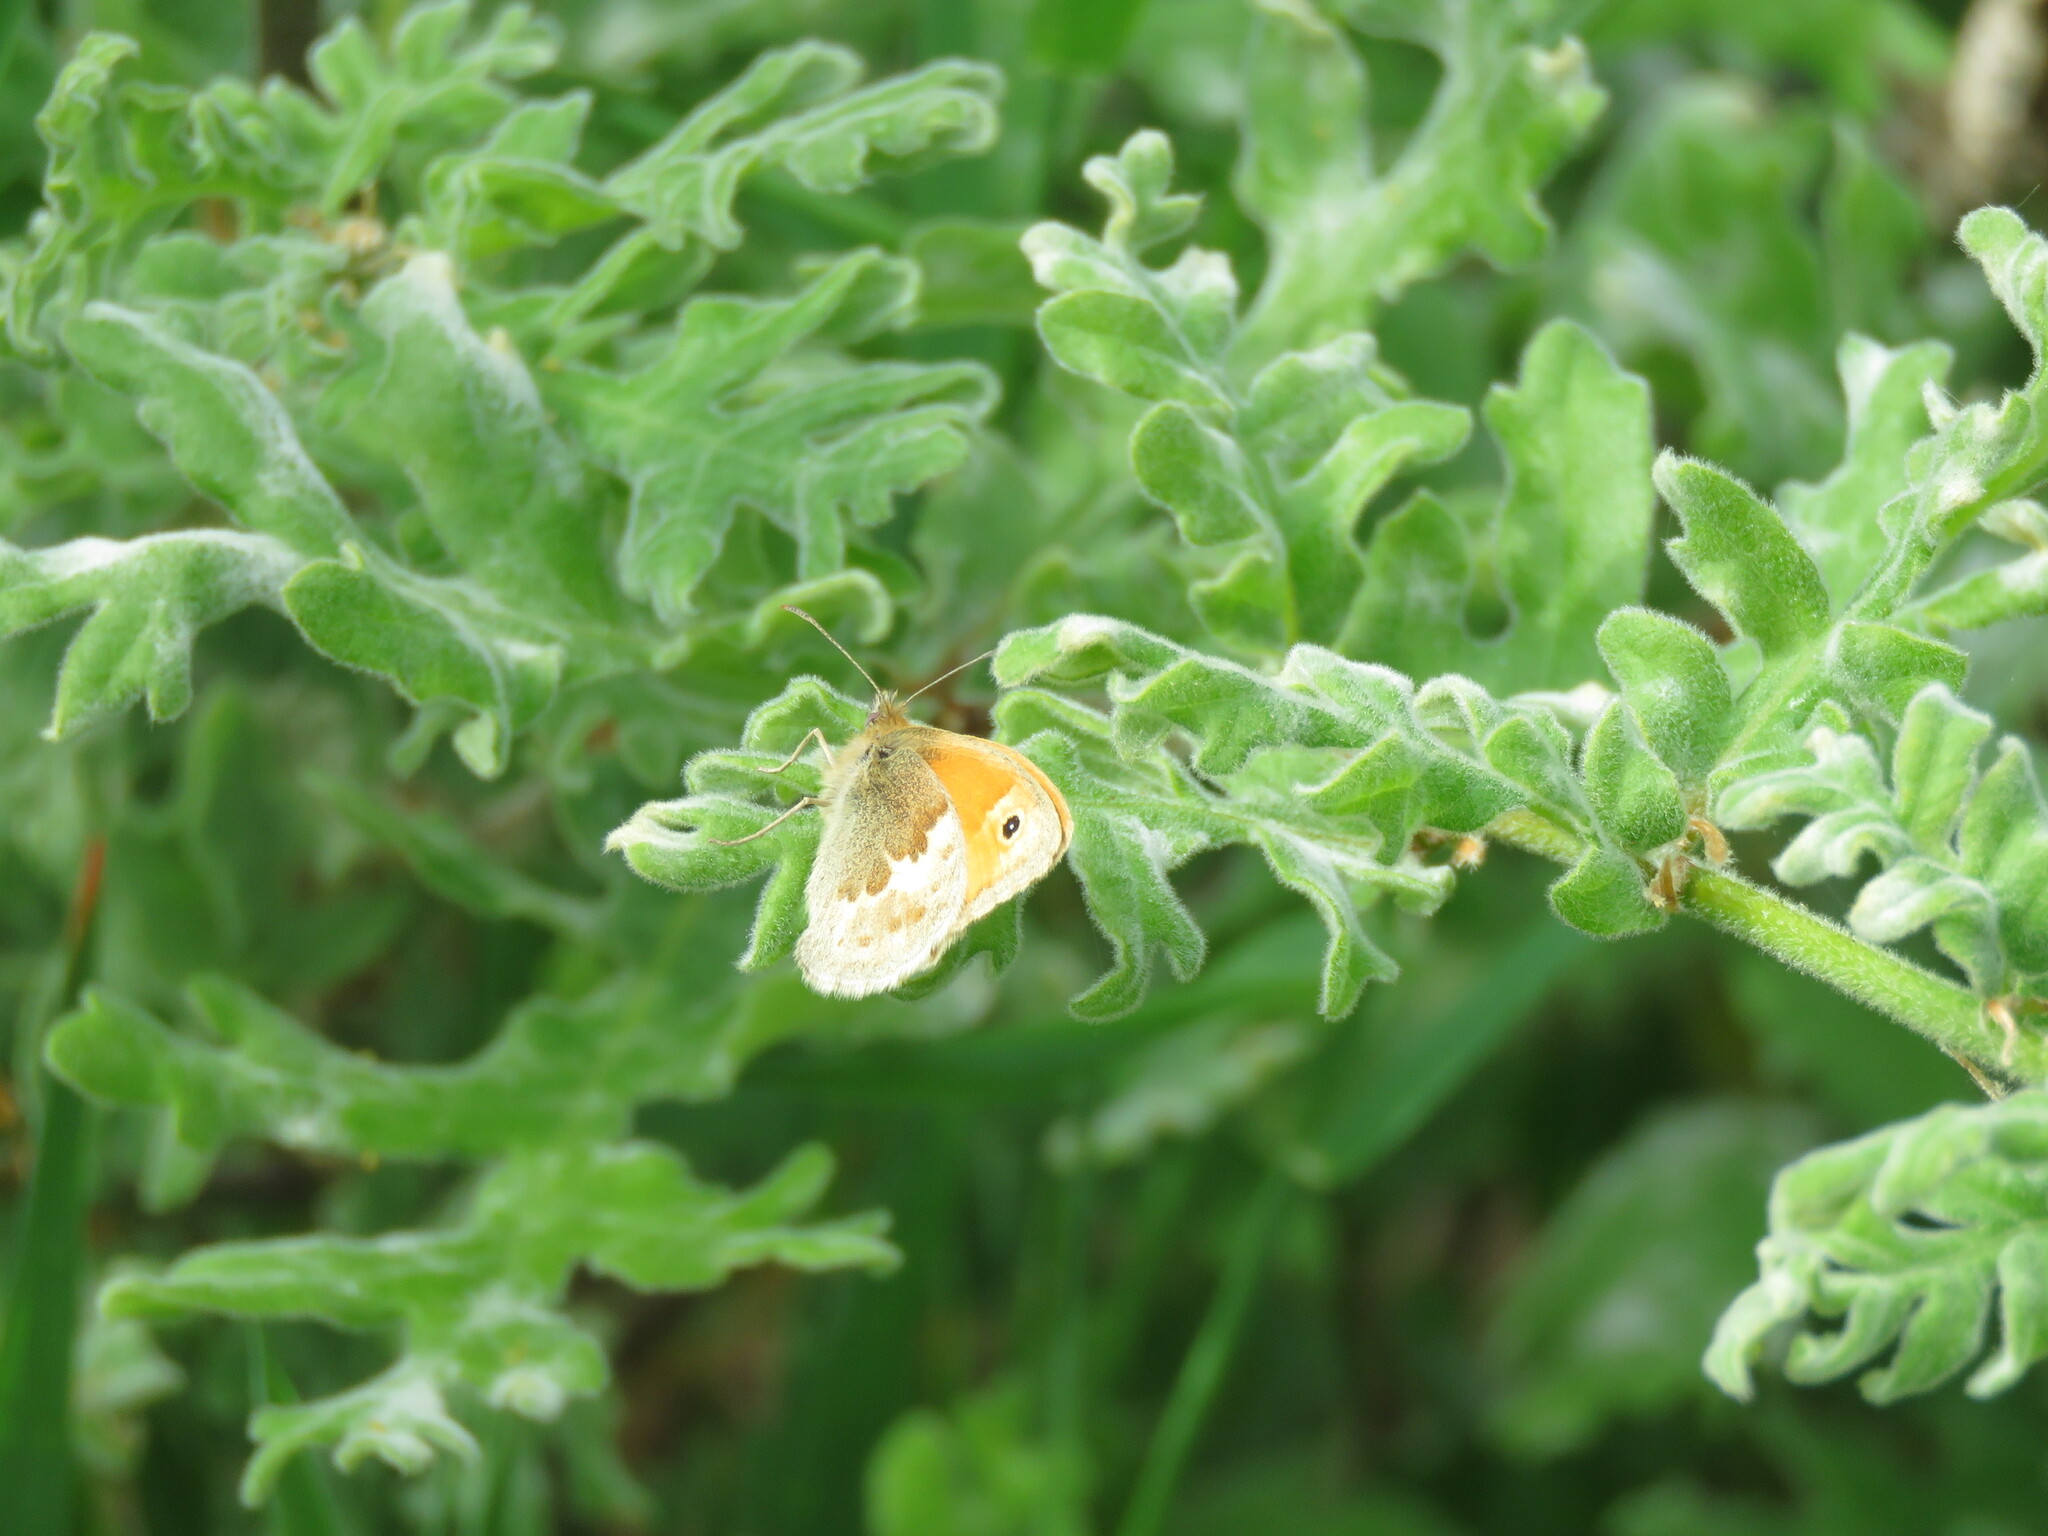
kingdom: Animalia
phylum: Arthropoda
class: Insecta
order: Lepidoptera
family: Nymphalidae
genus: Coenonympha
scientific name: Coenonympha pamphilus
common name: Small heath
